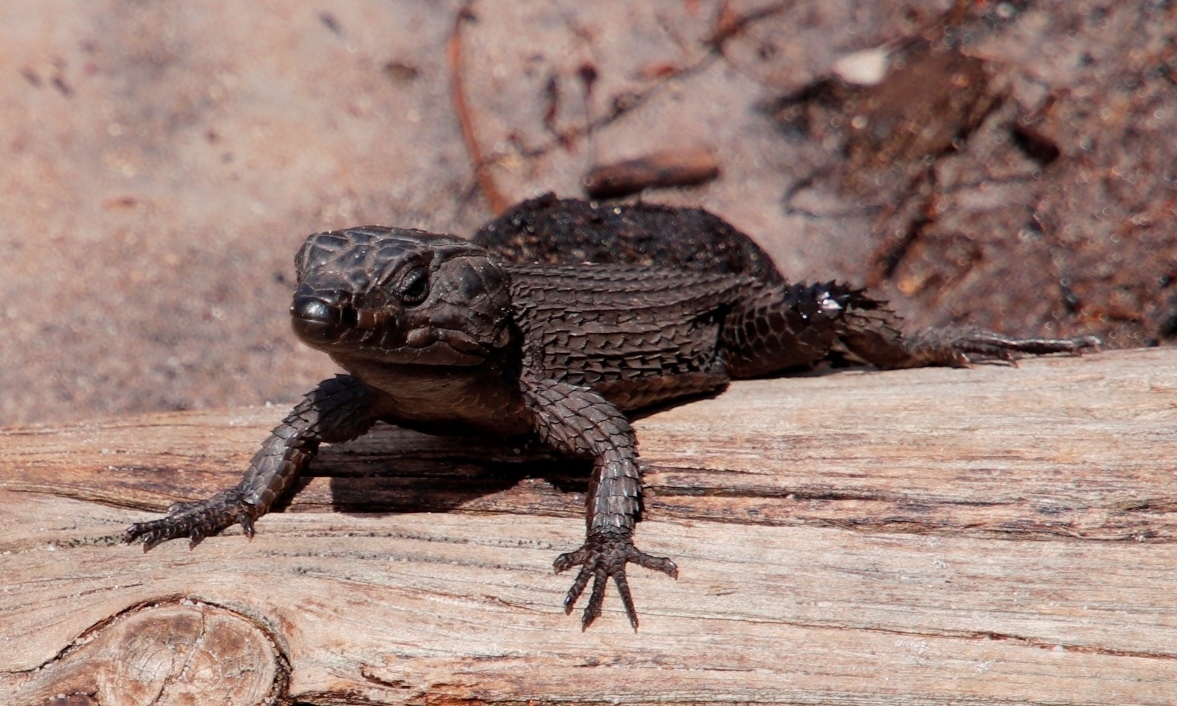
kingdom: Animalia
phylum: Chordata
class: Squamata
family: Cordylidae
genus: Cordylus
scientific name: Cordylus niger
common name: Black girdled lizard
